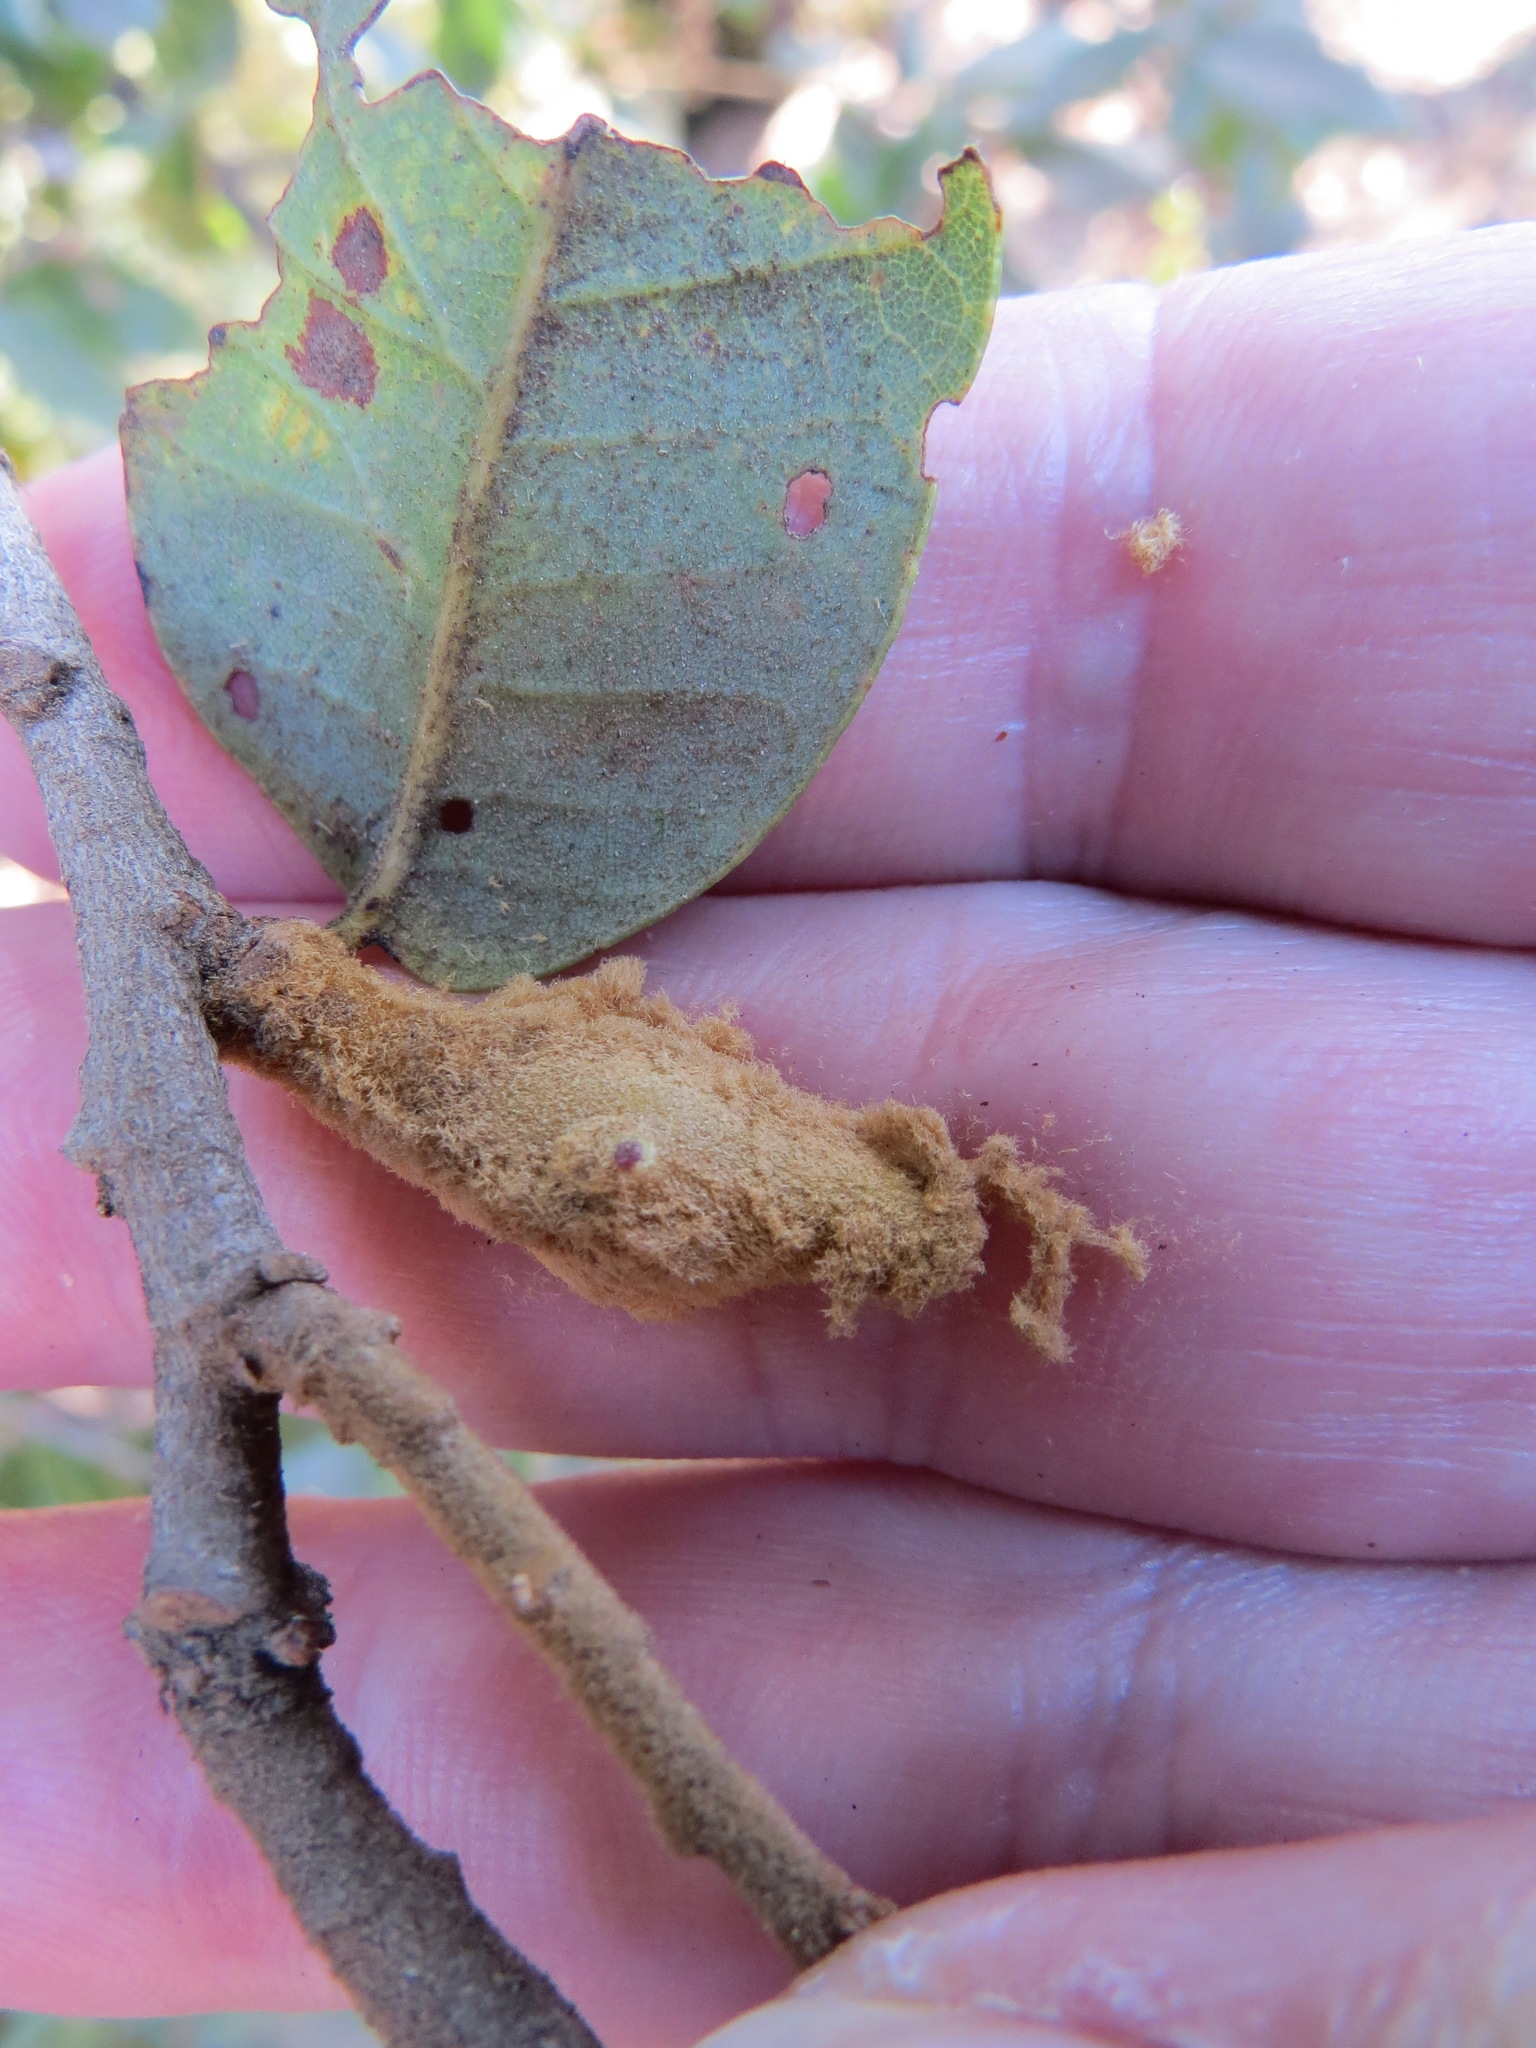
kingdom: Animalia
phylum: Arthropoda
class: Insecta
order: Hymenoptera
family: Cynipidae
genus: Heteroecus
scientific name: Heteroecus
